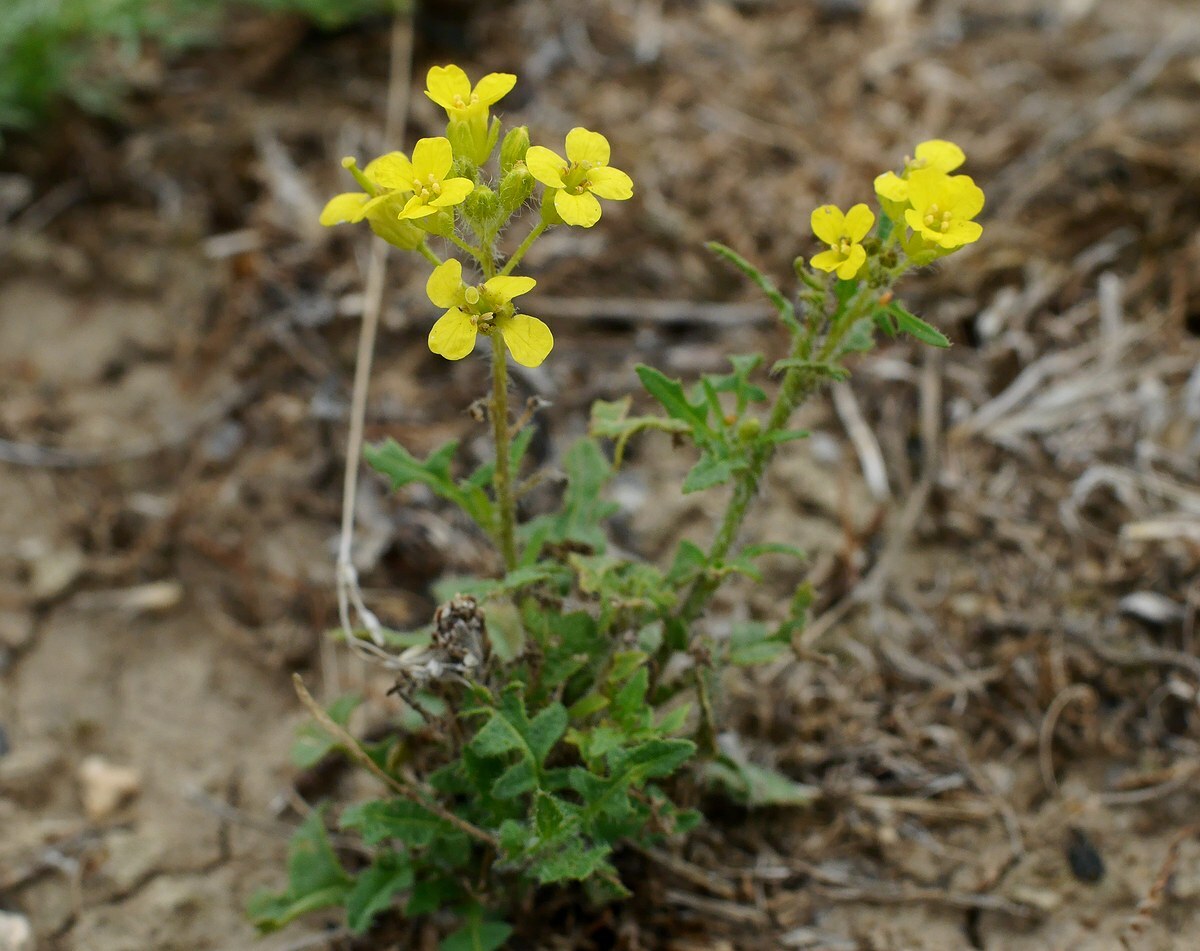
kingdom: Plantae
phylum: Tracheophyta
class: Magnoliopsida
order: Brassicales
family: Brassicaceae
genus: Sisymbrium
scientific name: Sisymbrium loeselii
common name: False london-rocket
